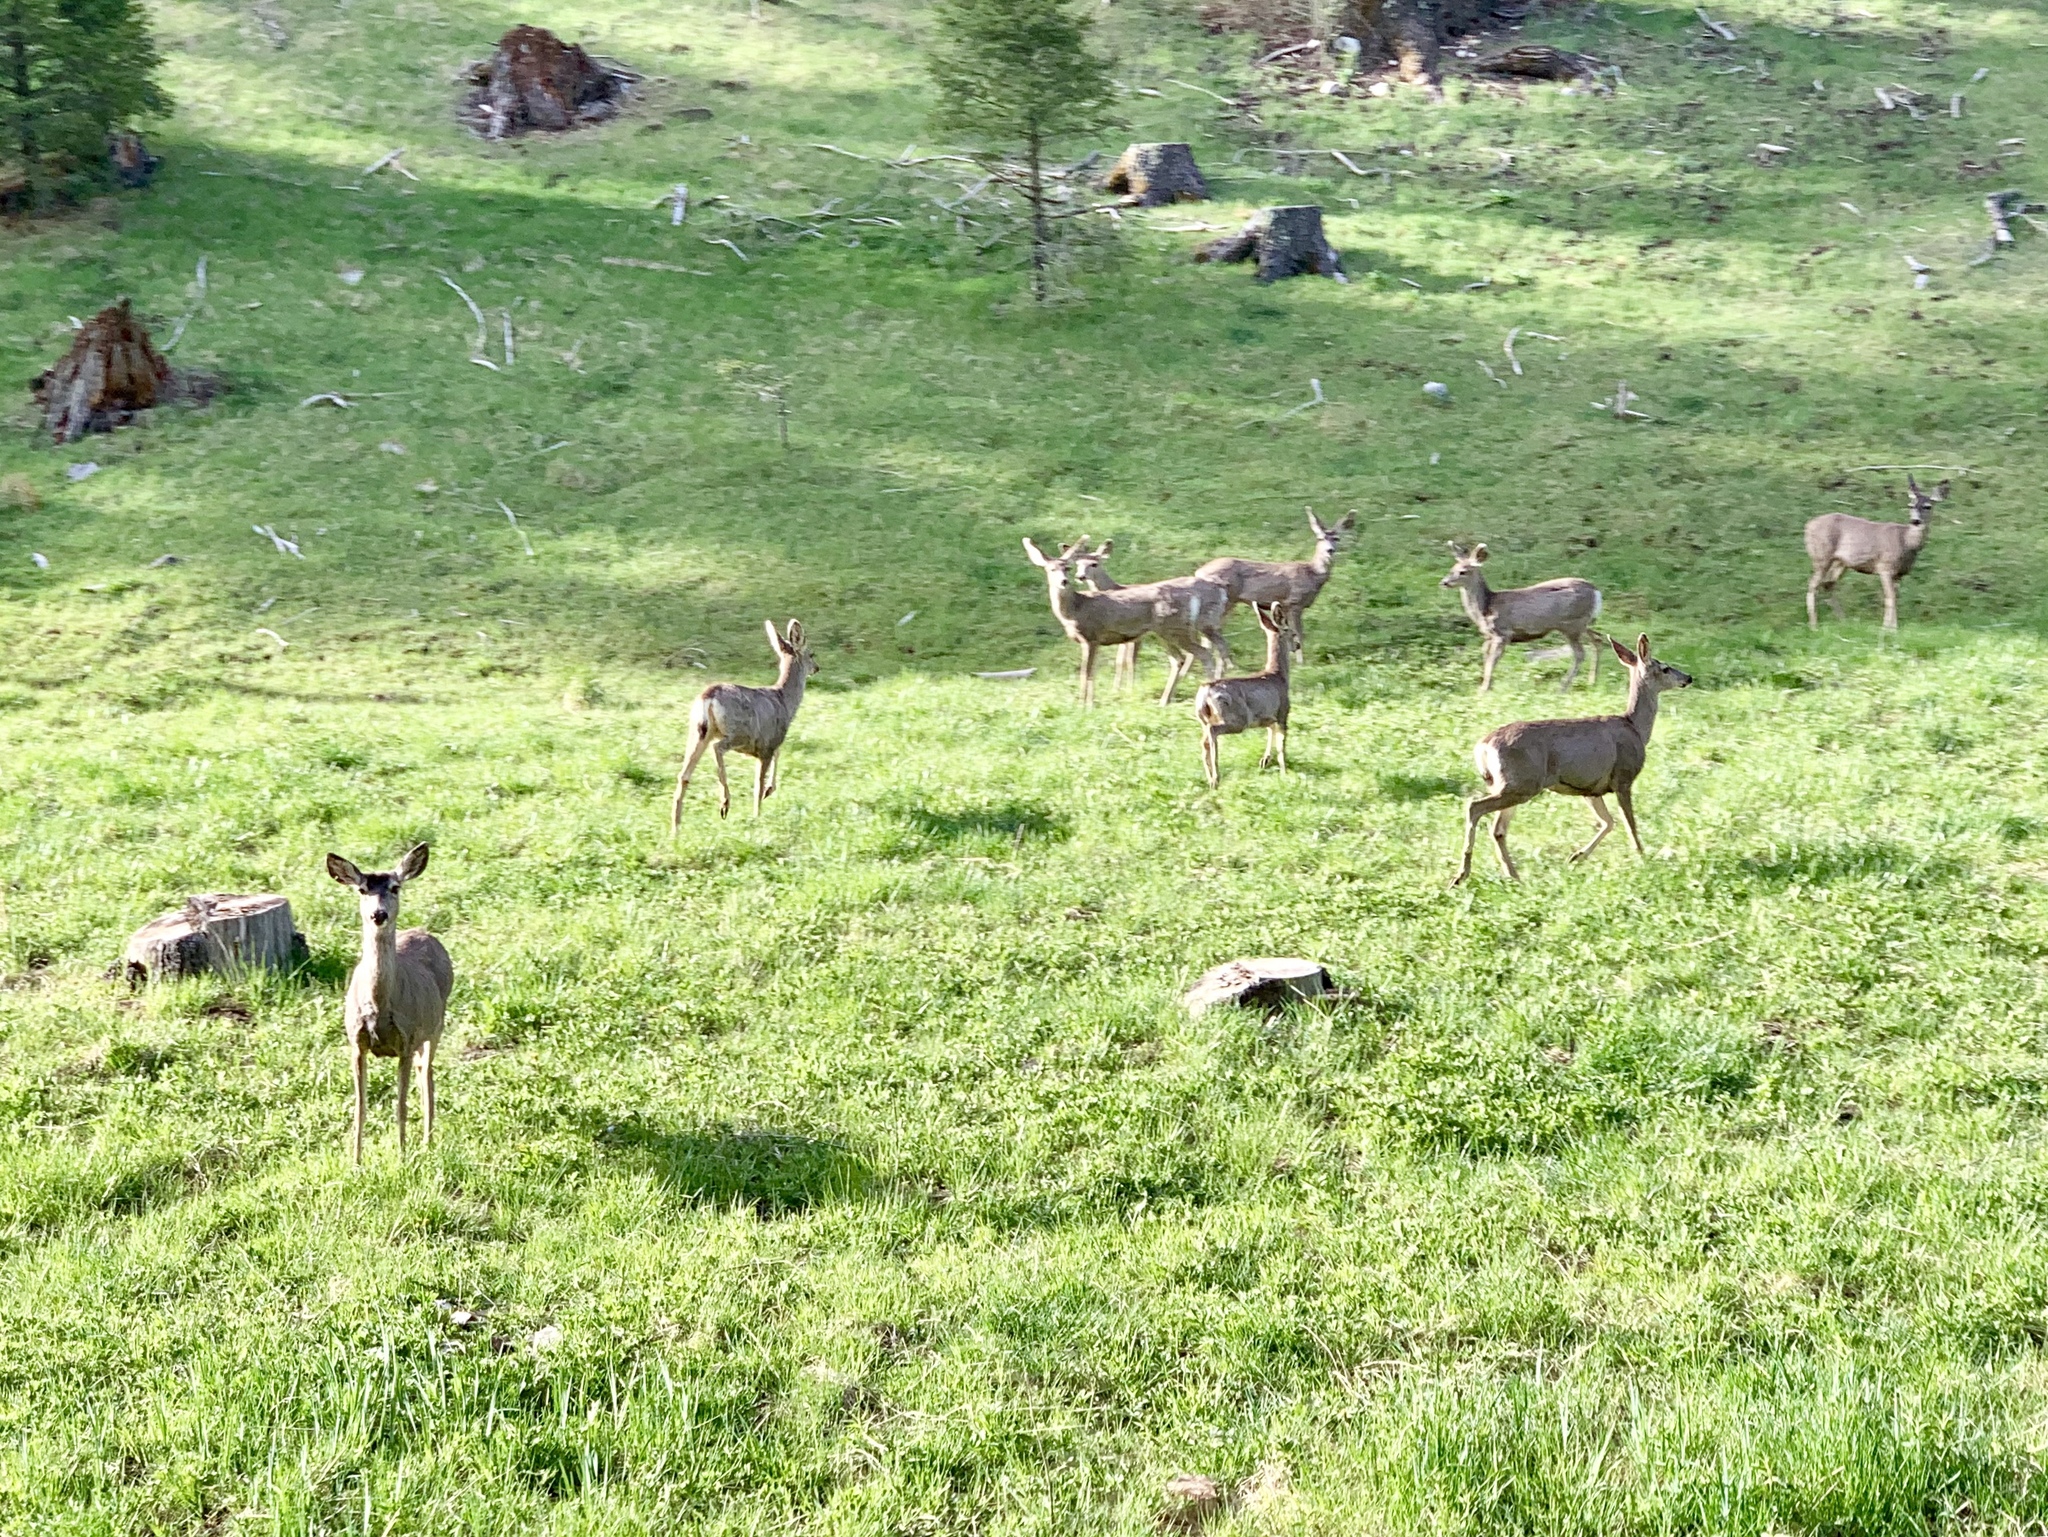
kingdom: Animalia
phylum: Chordata
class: Mammalia
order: Artiodactyla
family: Cervidae
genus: Odocoileus
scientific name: Odocoileus hemionus
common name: Mule deer
